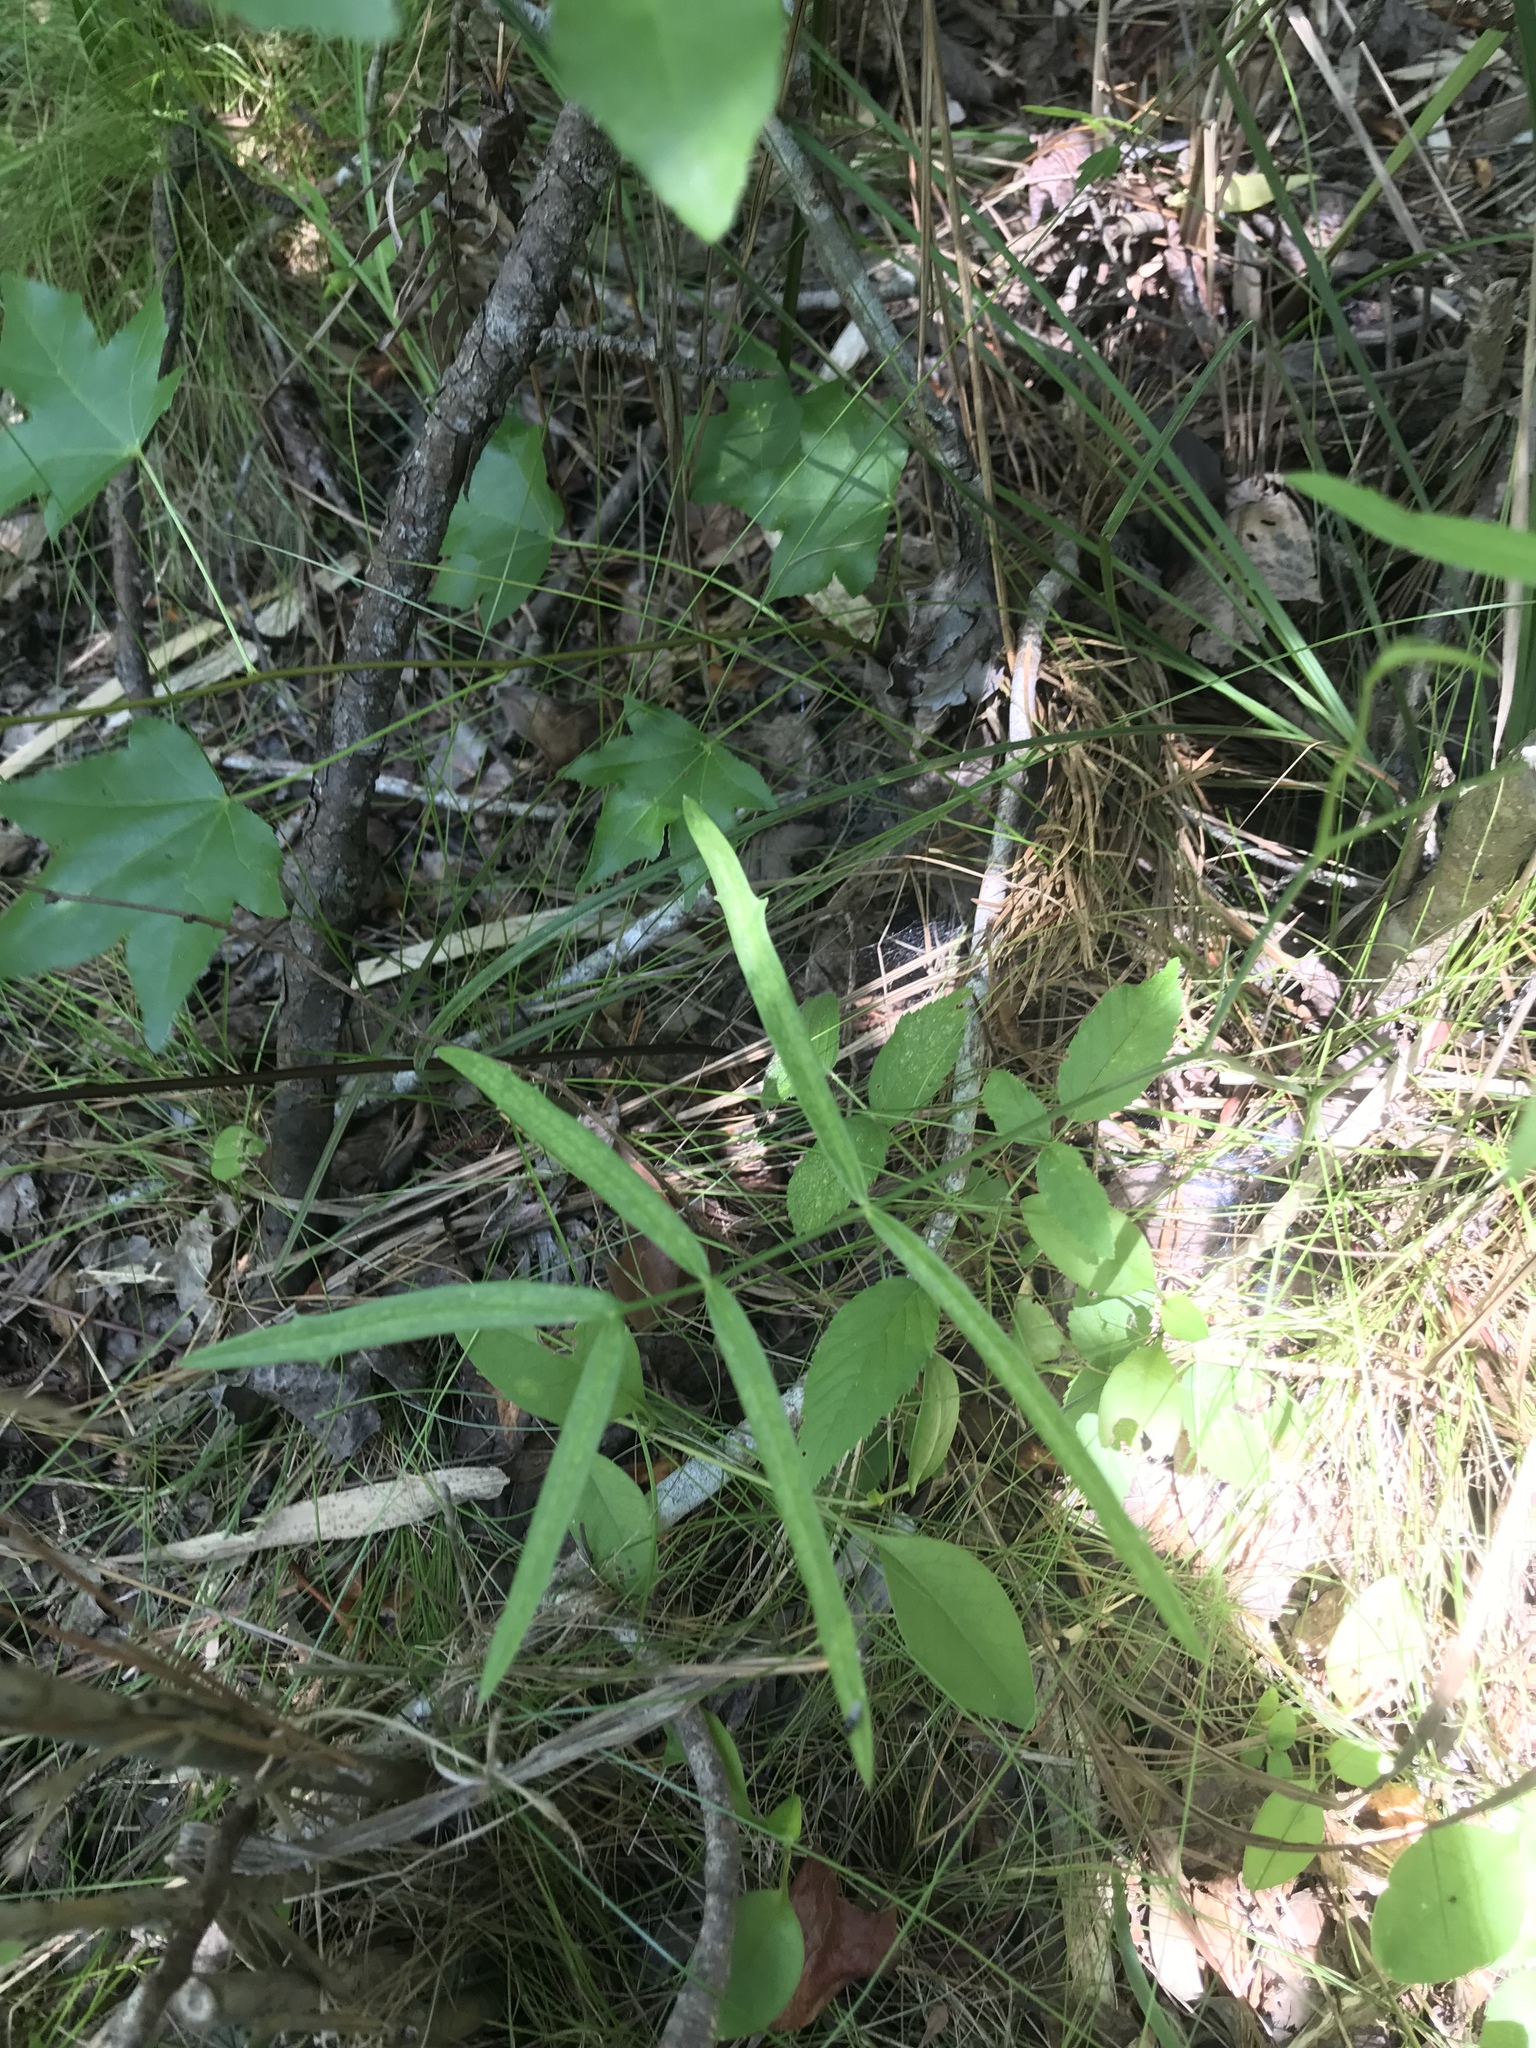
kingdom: Plantae
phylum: Tracheophyta
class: Magnoliopsida
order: Apiales
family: Apiaceae
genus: Oxypolis
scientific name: Oxypolis rigidior
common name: Cowbane
